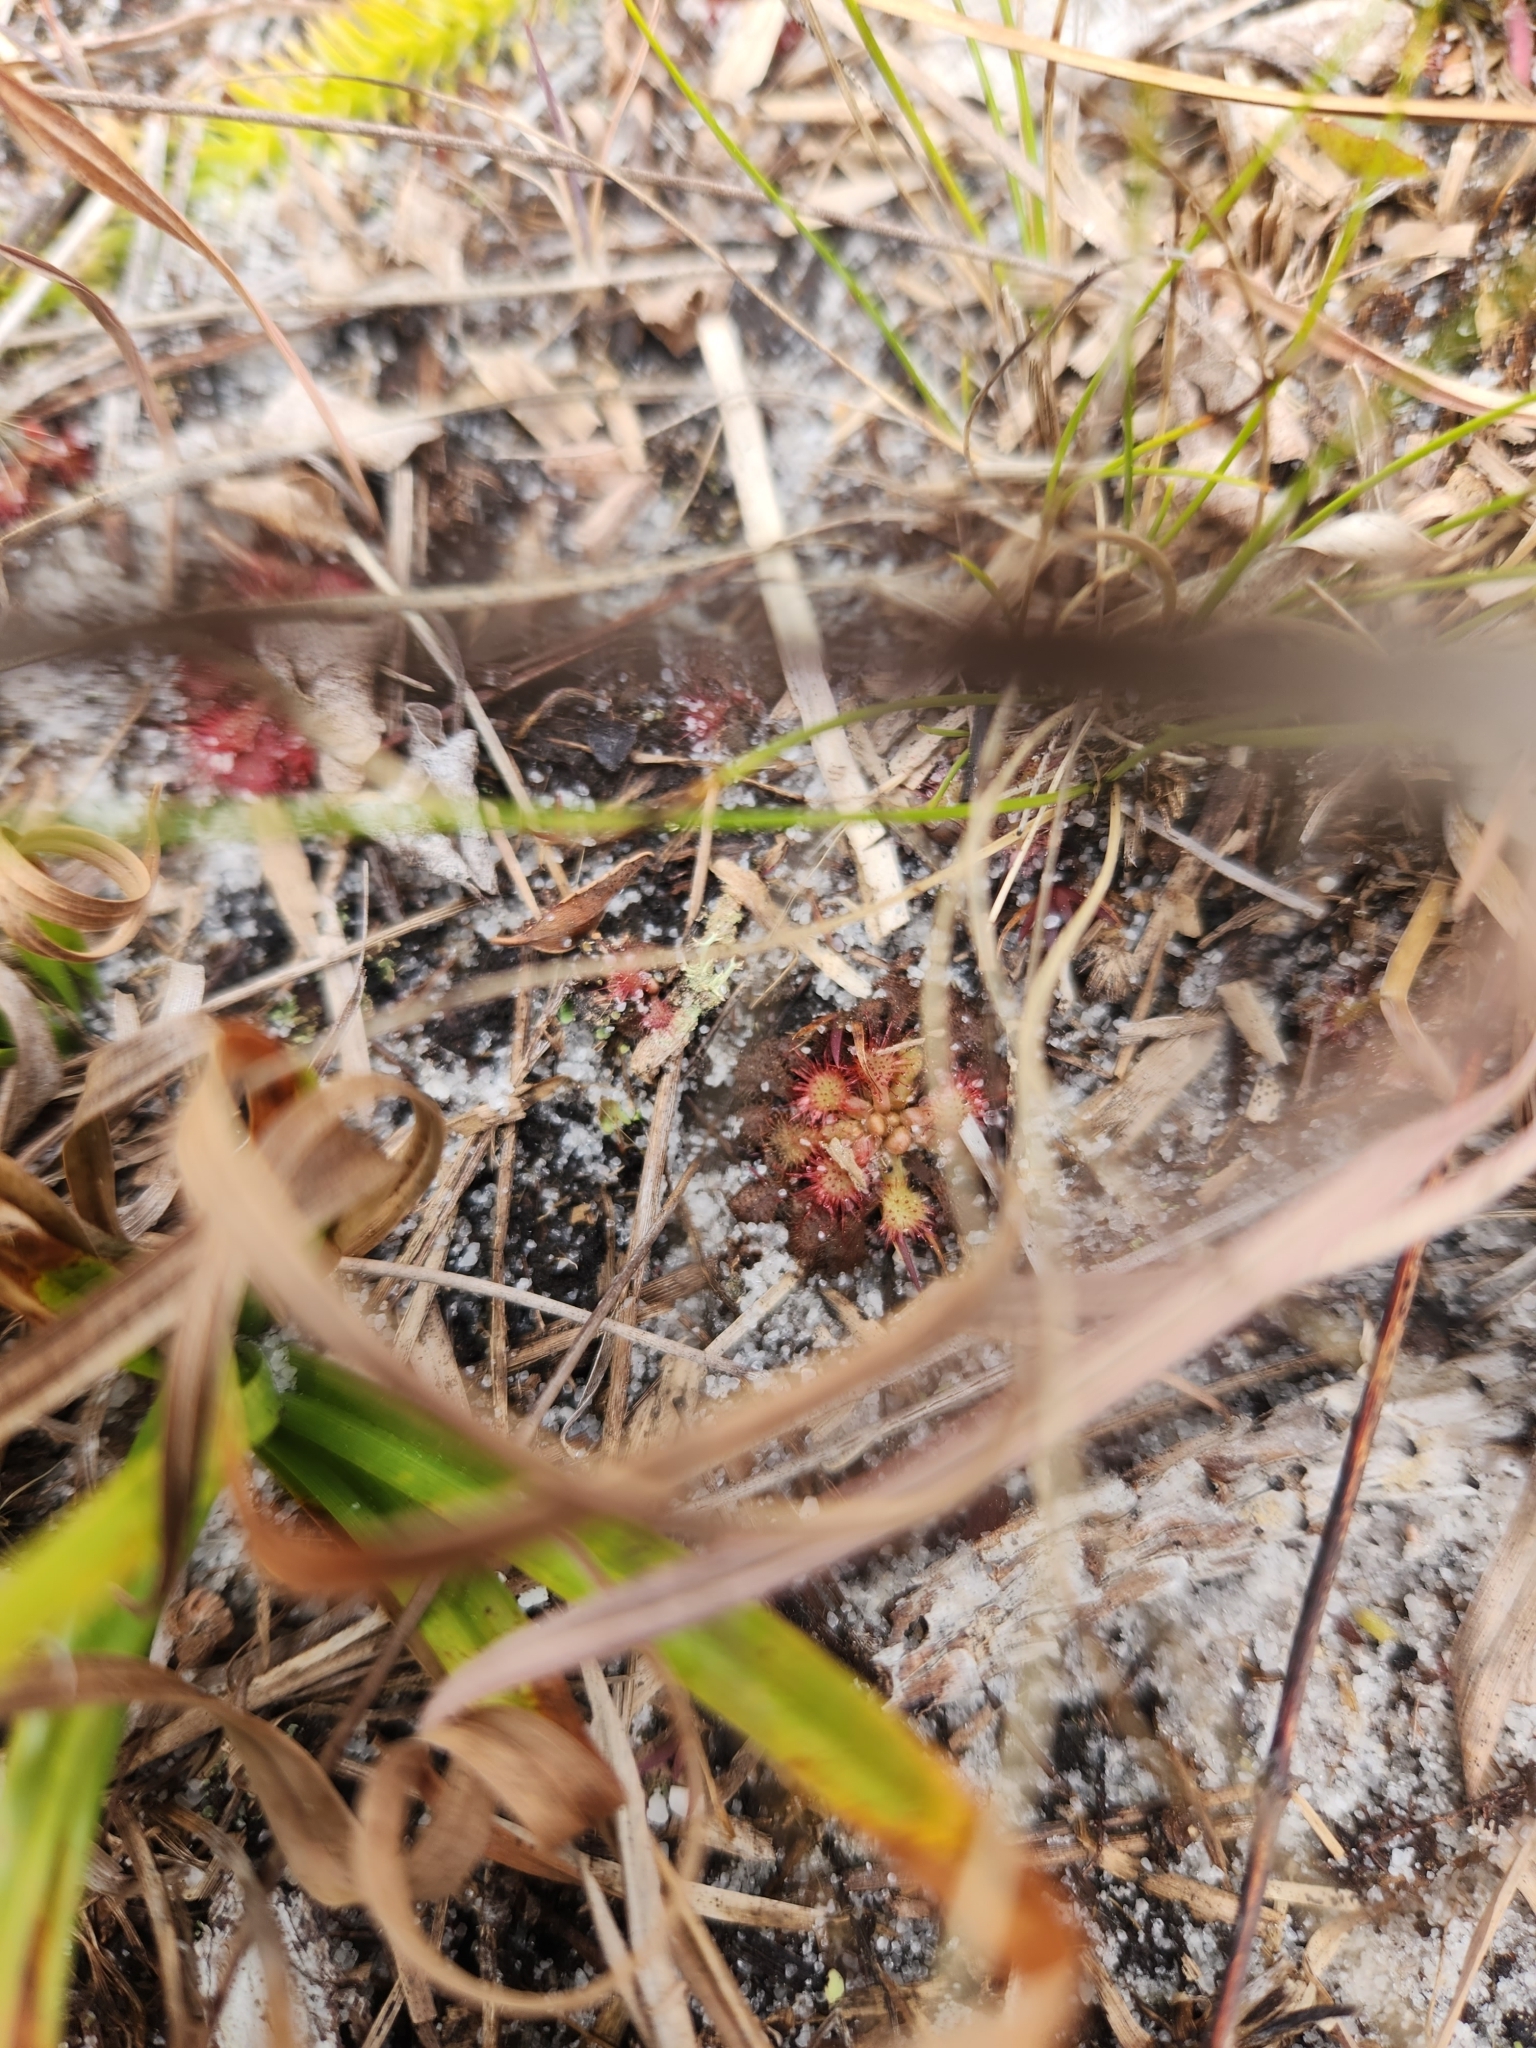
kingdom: Plantae
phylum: Tracheophyta
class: Magnoliopsida
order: Caryophyllales
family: Droseraceae
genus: Drosera
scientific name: Drosera capillaris
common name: Pink sundew
